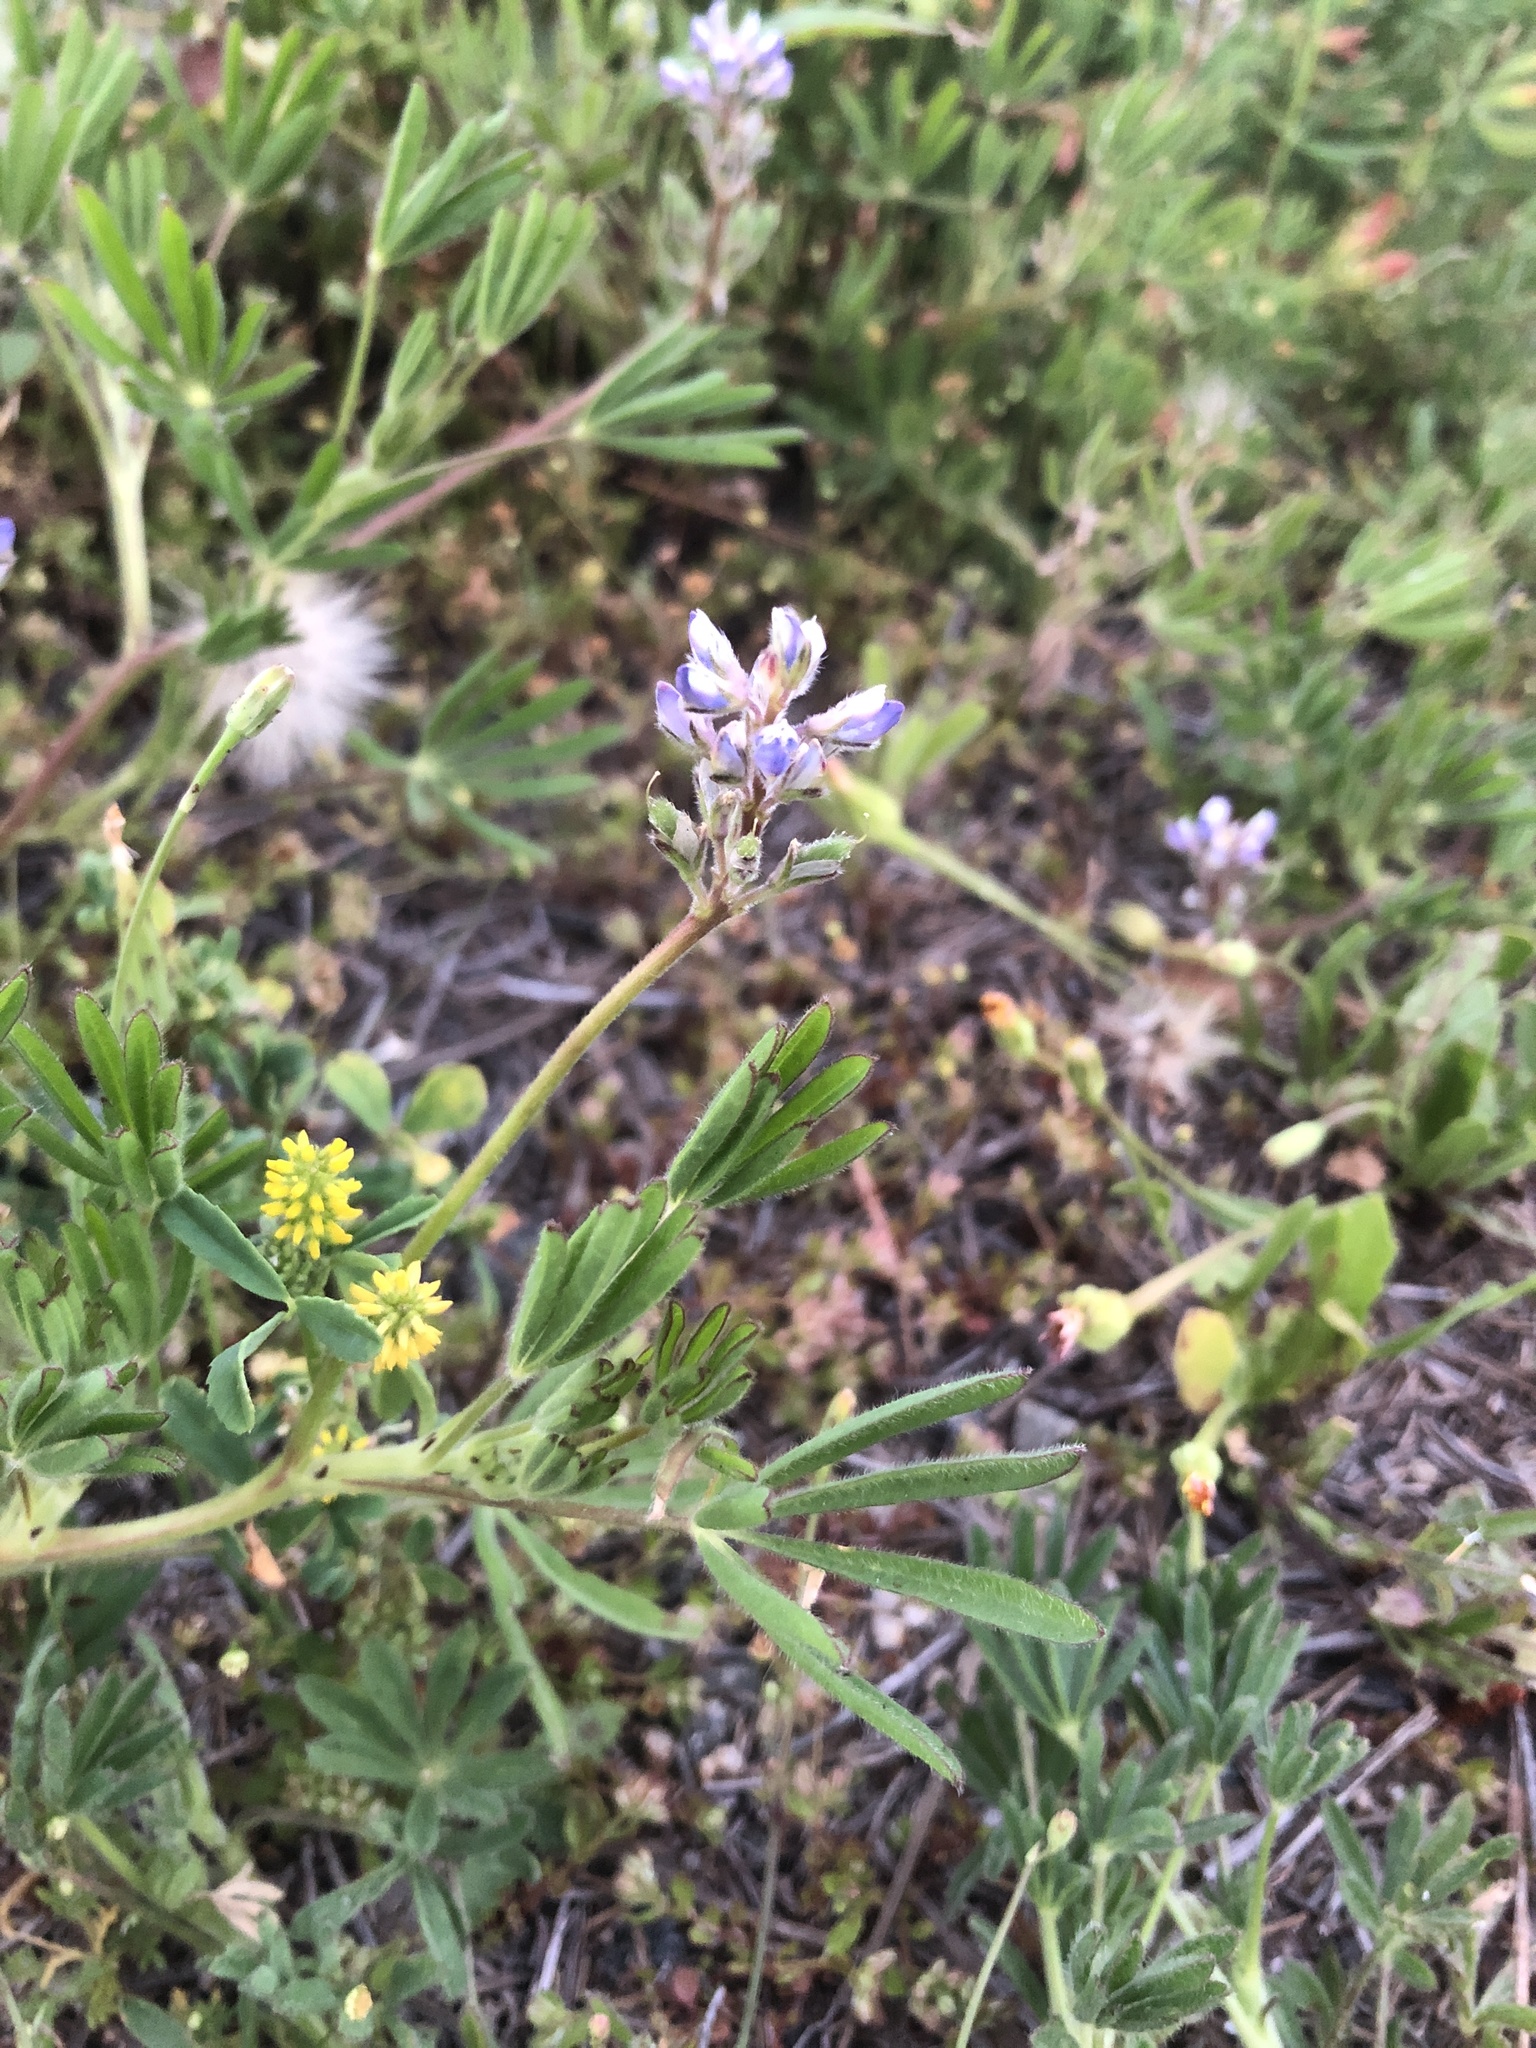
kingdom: Plantae
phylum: Tracheophyta
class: Magnoliopsida
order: Fabales
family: Fabaceae
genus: Lupinus
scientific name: Lupinus bicolor
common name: Miniature lupine
